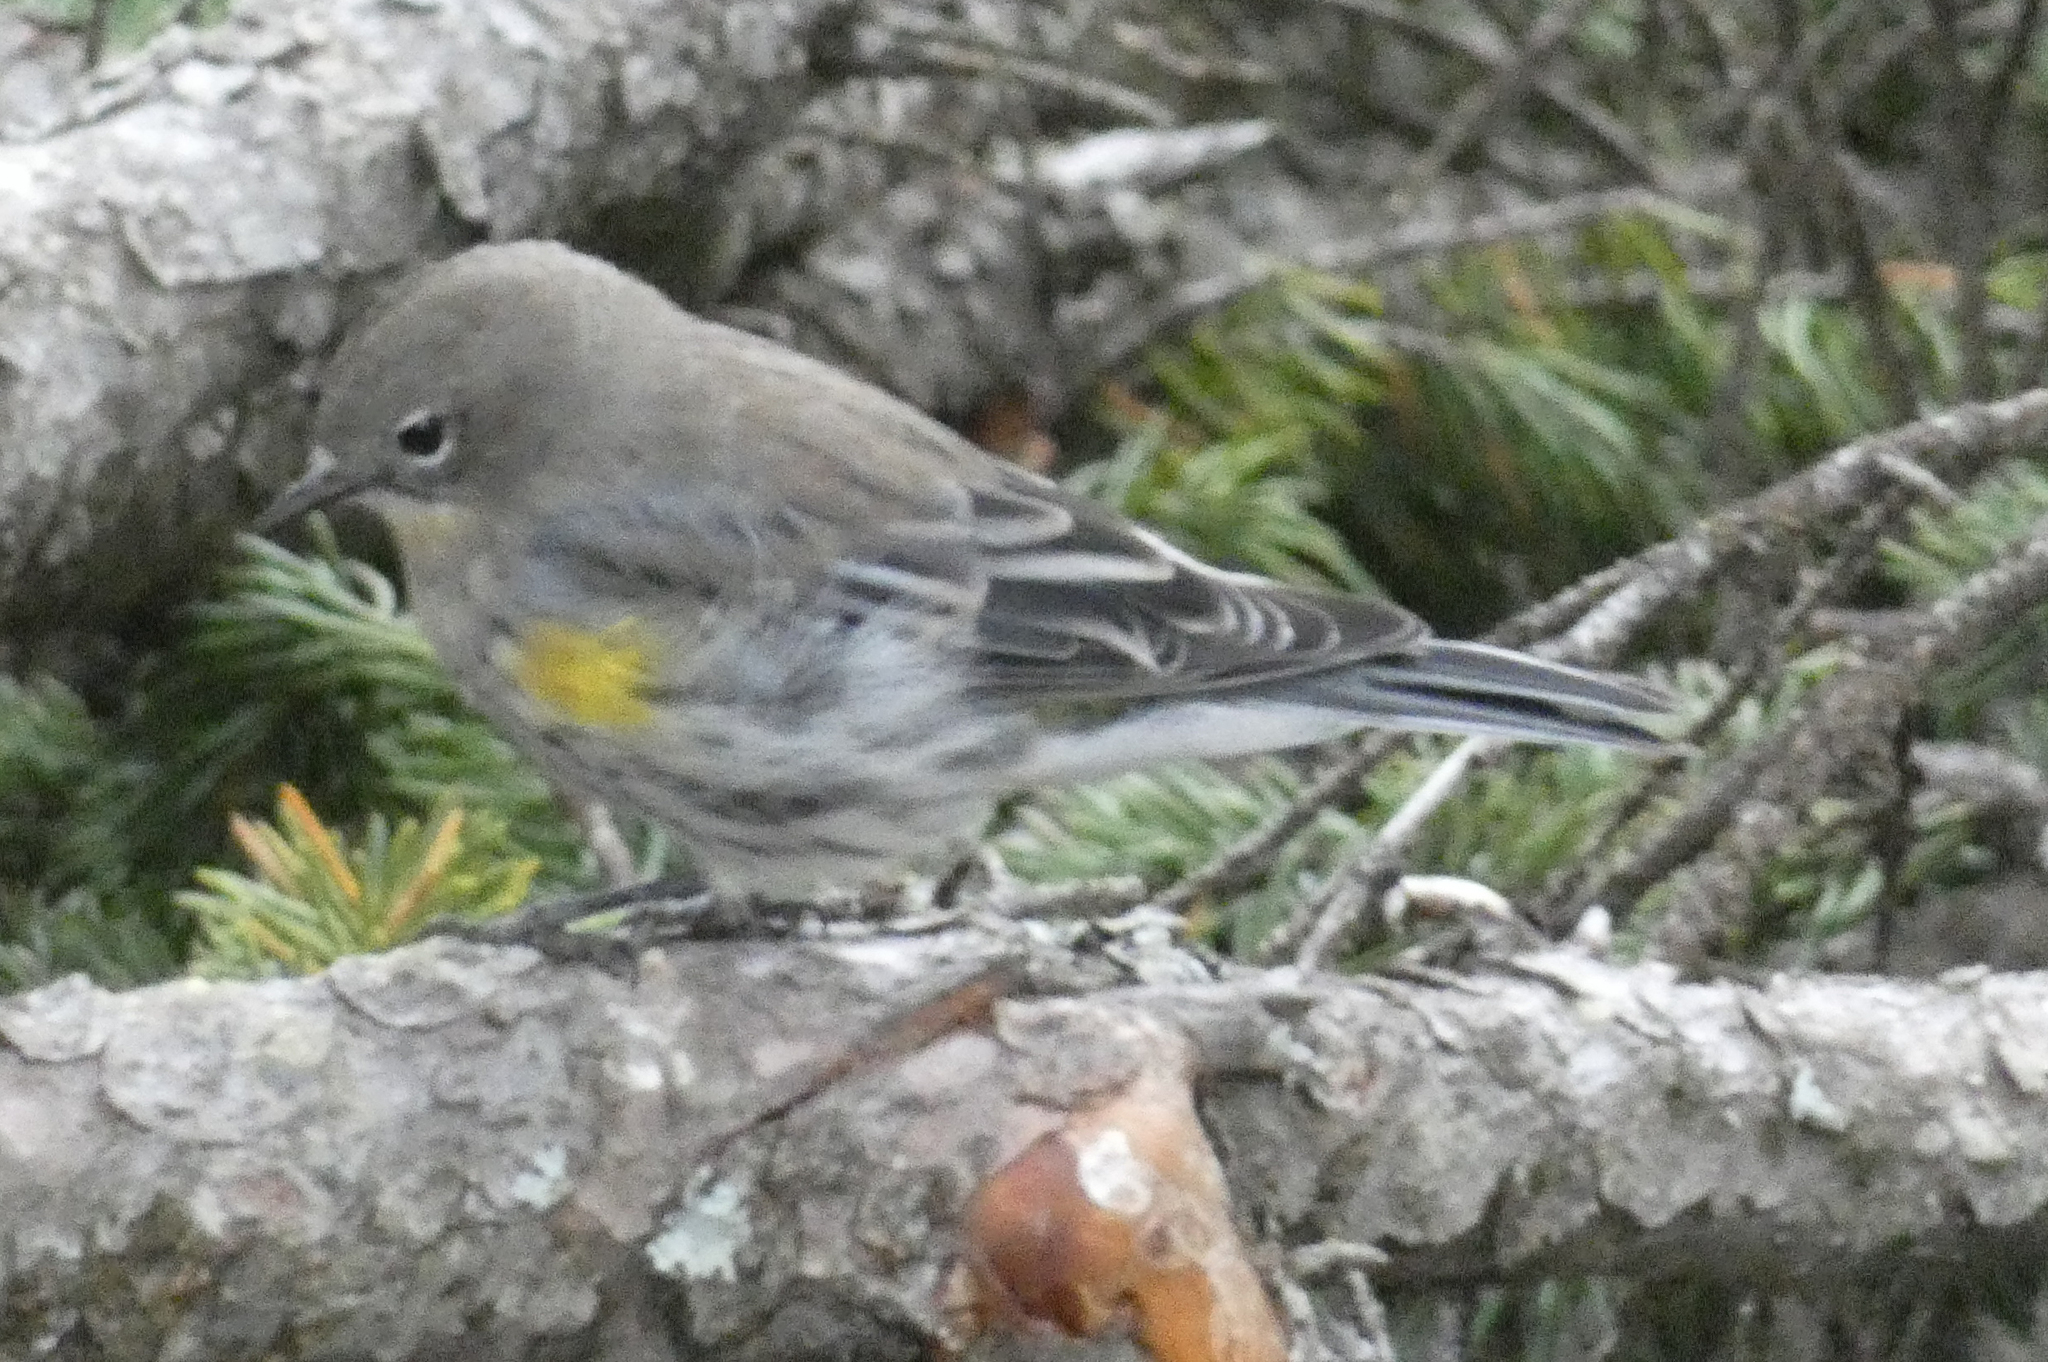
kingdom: Animalia
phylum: Chordata
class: Aves
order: Passeriformes
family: Parulidae
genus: Setophaga
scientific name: Setophaga coronata
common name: Myrtle warbler
